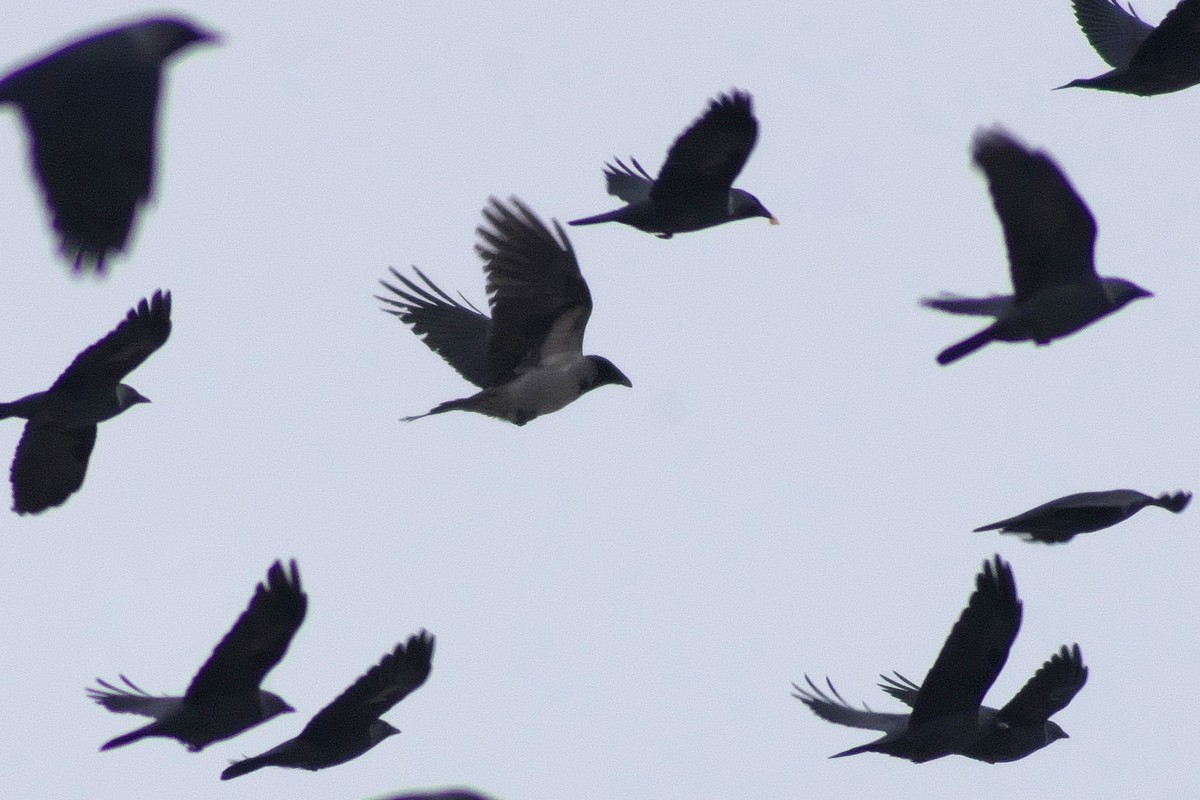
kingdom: Animalia
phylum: Chordata
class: Aves
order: Passeriformes
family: Corvidae
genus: Corvus
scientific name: Corvus cornix
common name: Hooded crow
